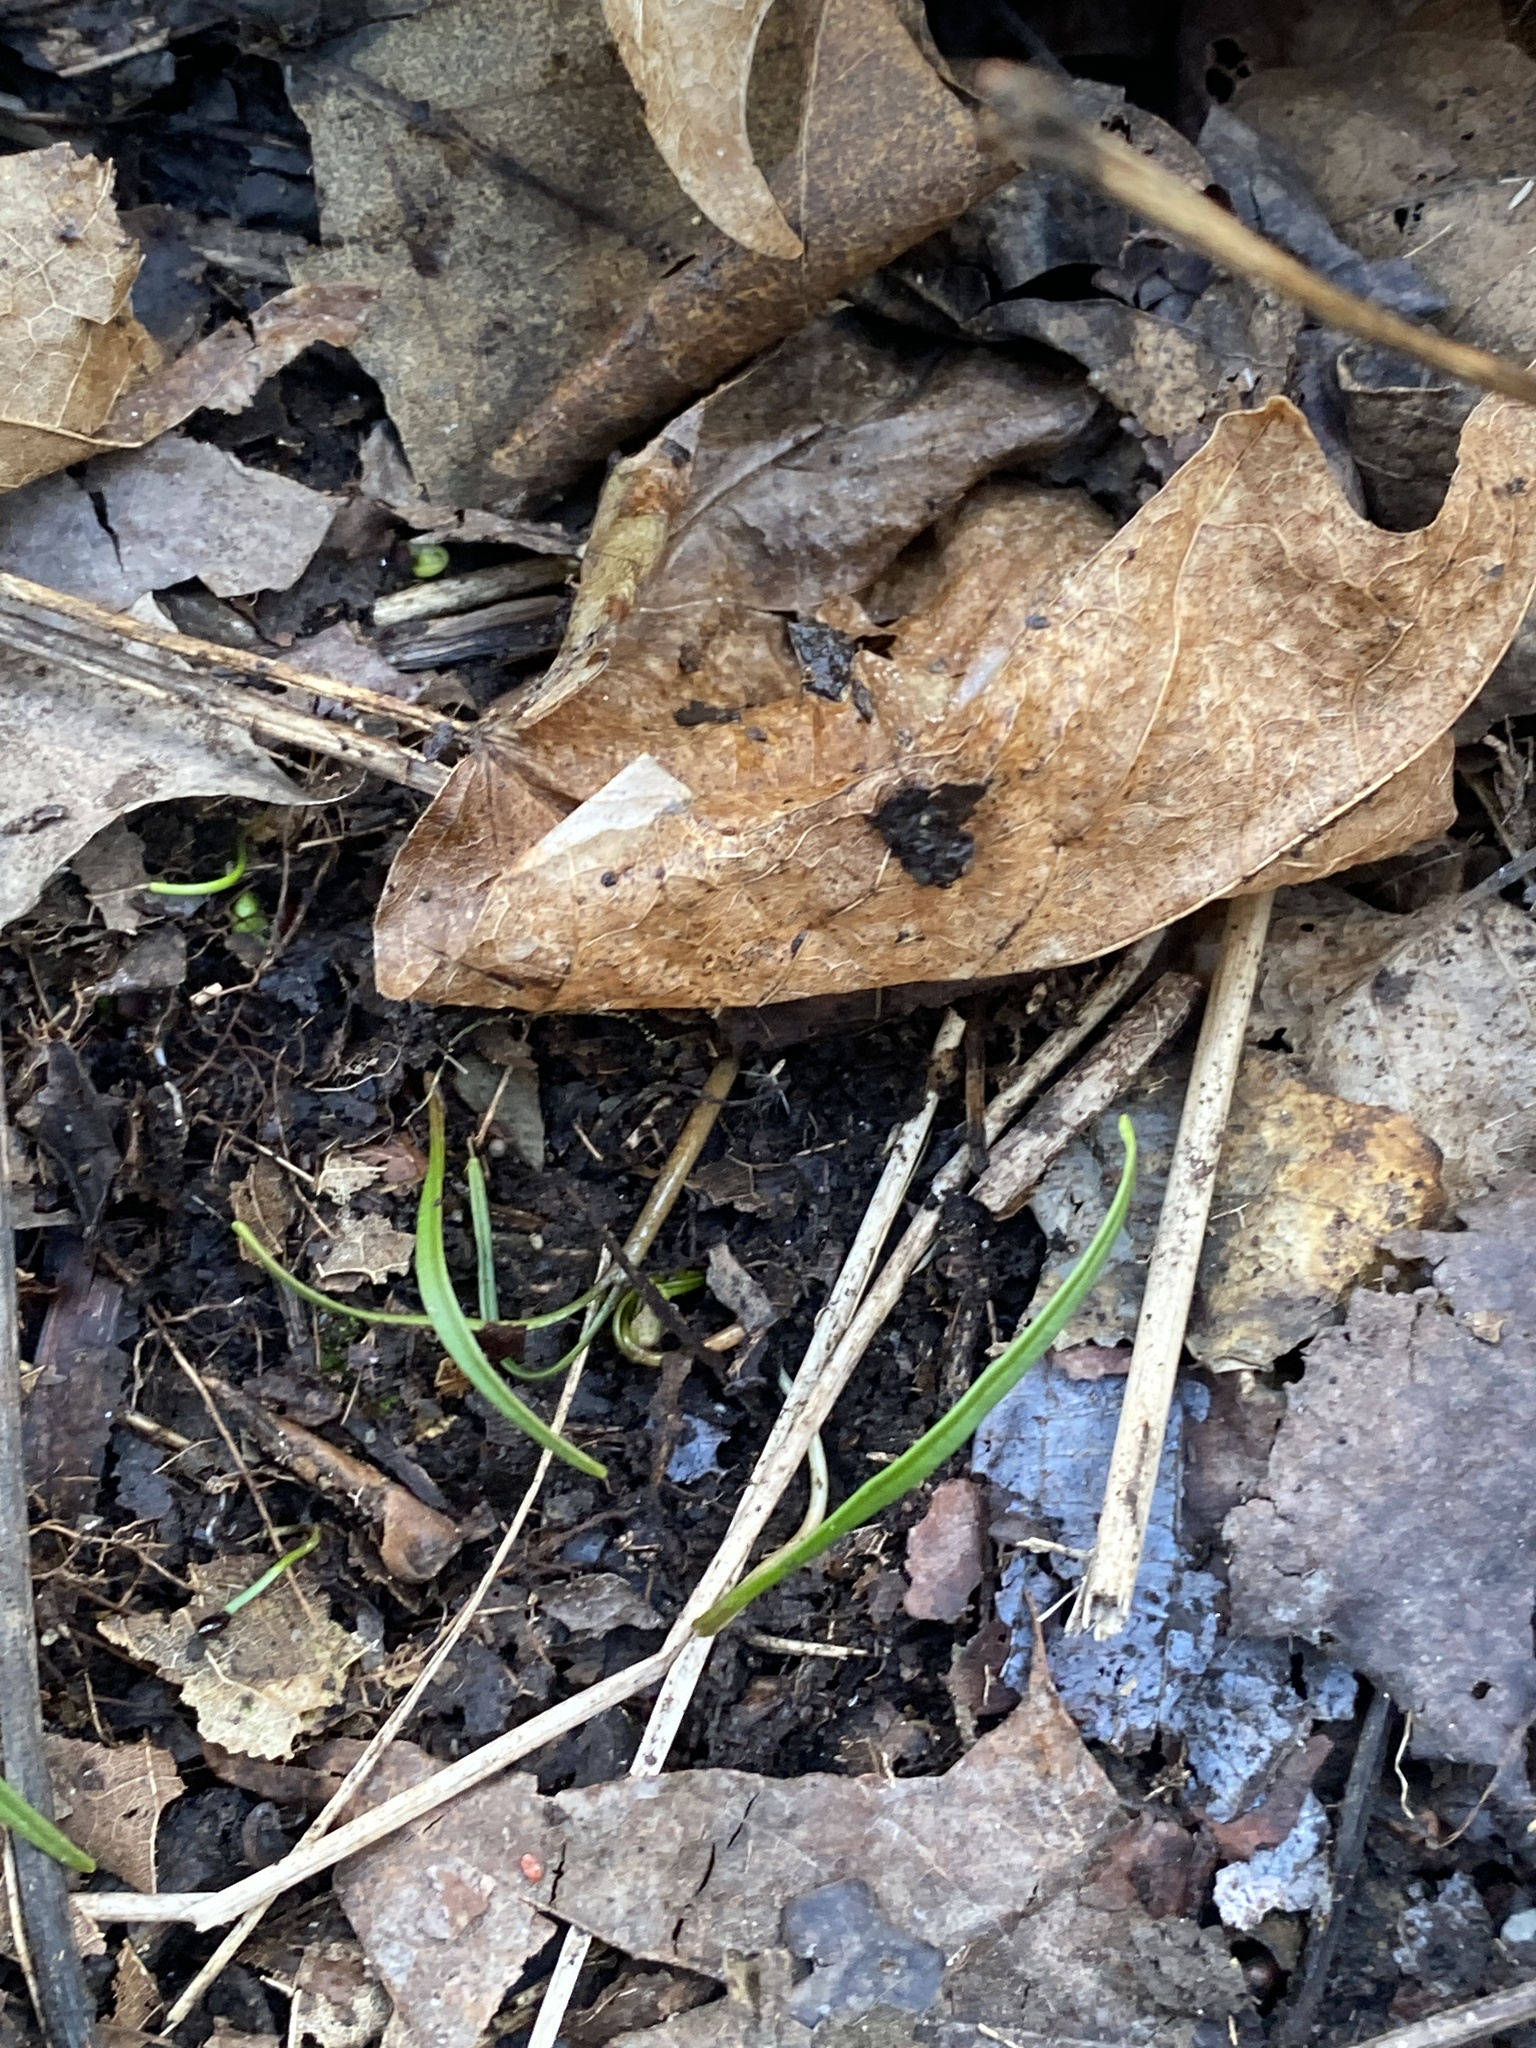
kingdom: Plantae
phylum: Tracheophyta
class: Magnoliopsida
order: Caryophyllales
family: Montiaceae
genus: Claytonia
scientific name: Claytonia virginica
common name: Virginia springbeauty
